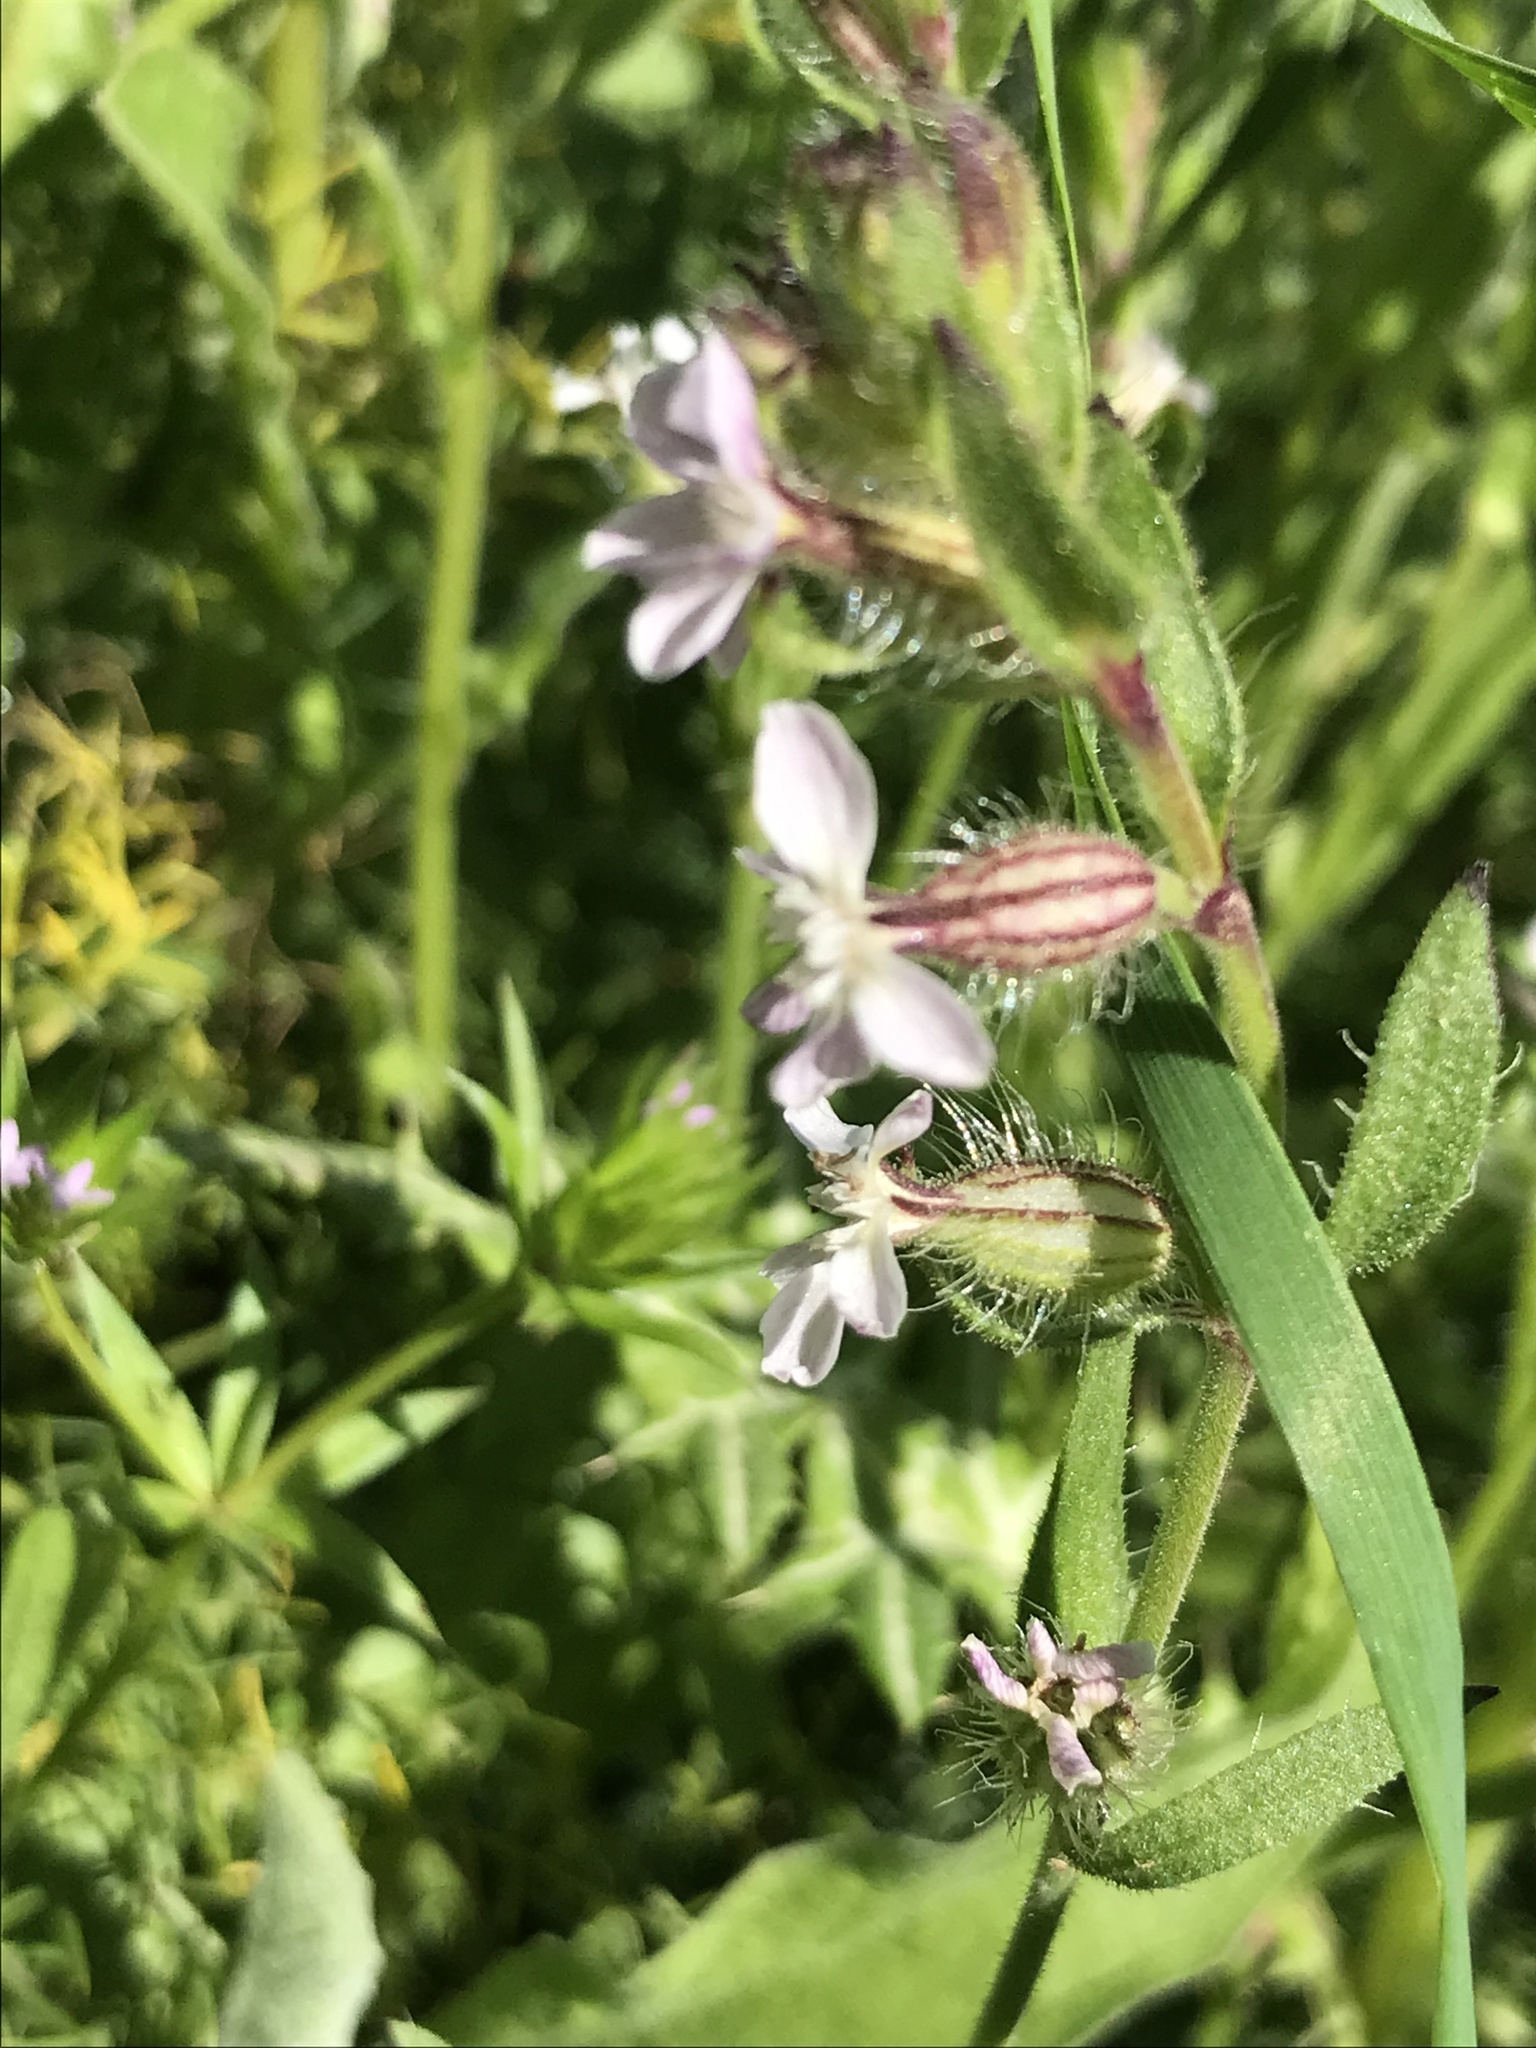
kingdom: Plantae
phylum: Tracheophyta
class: Magnoliopsida
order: Caryophyllales
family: Caryophyllaceae
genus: Silene
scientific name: Silene gallica
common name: Small-flowered catchfly
